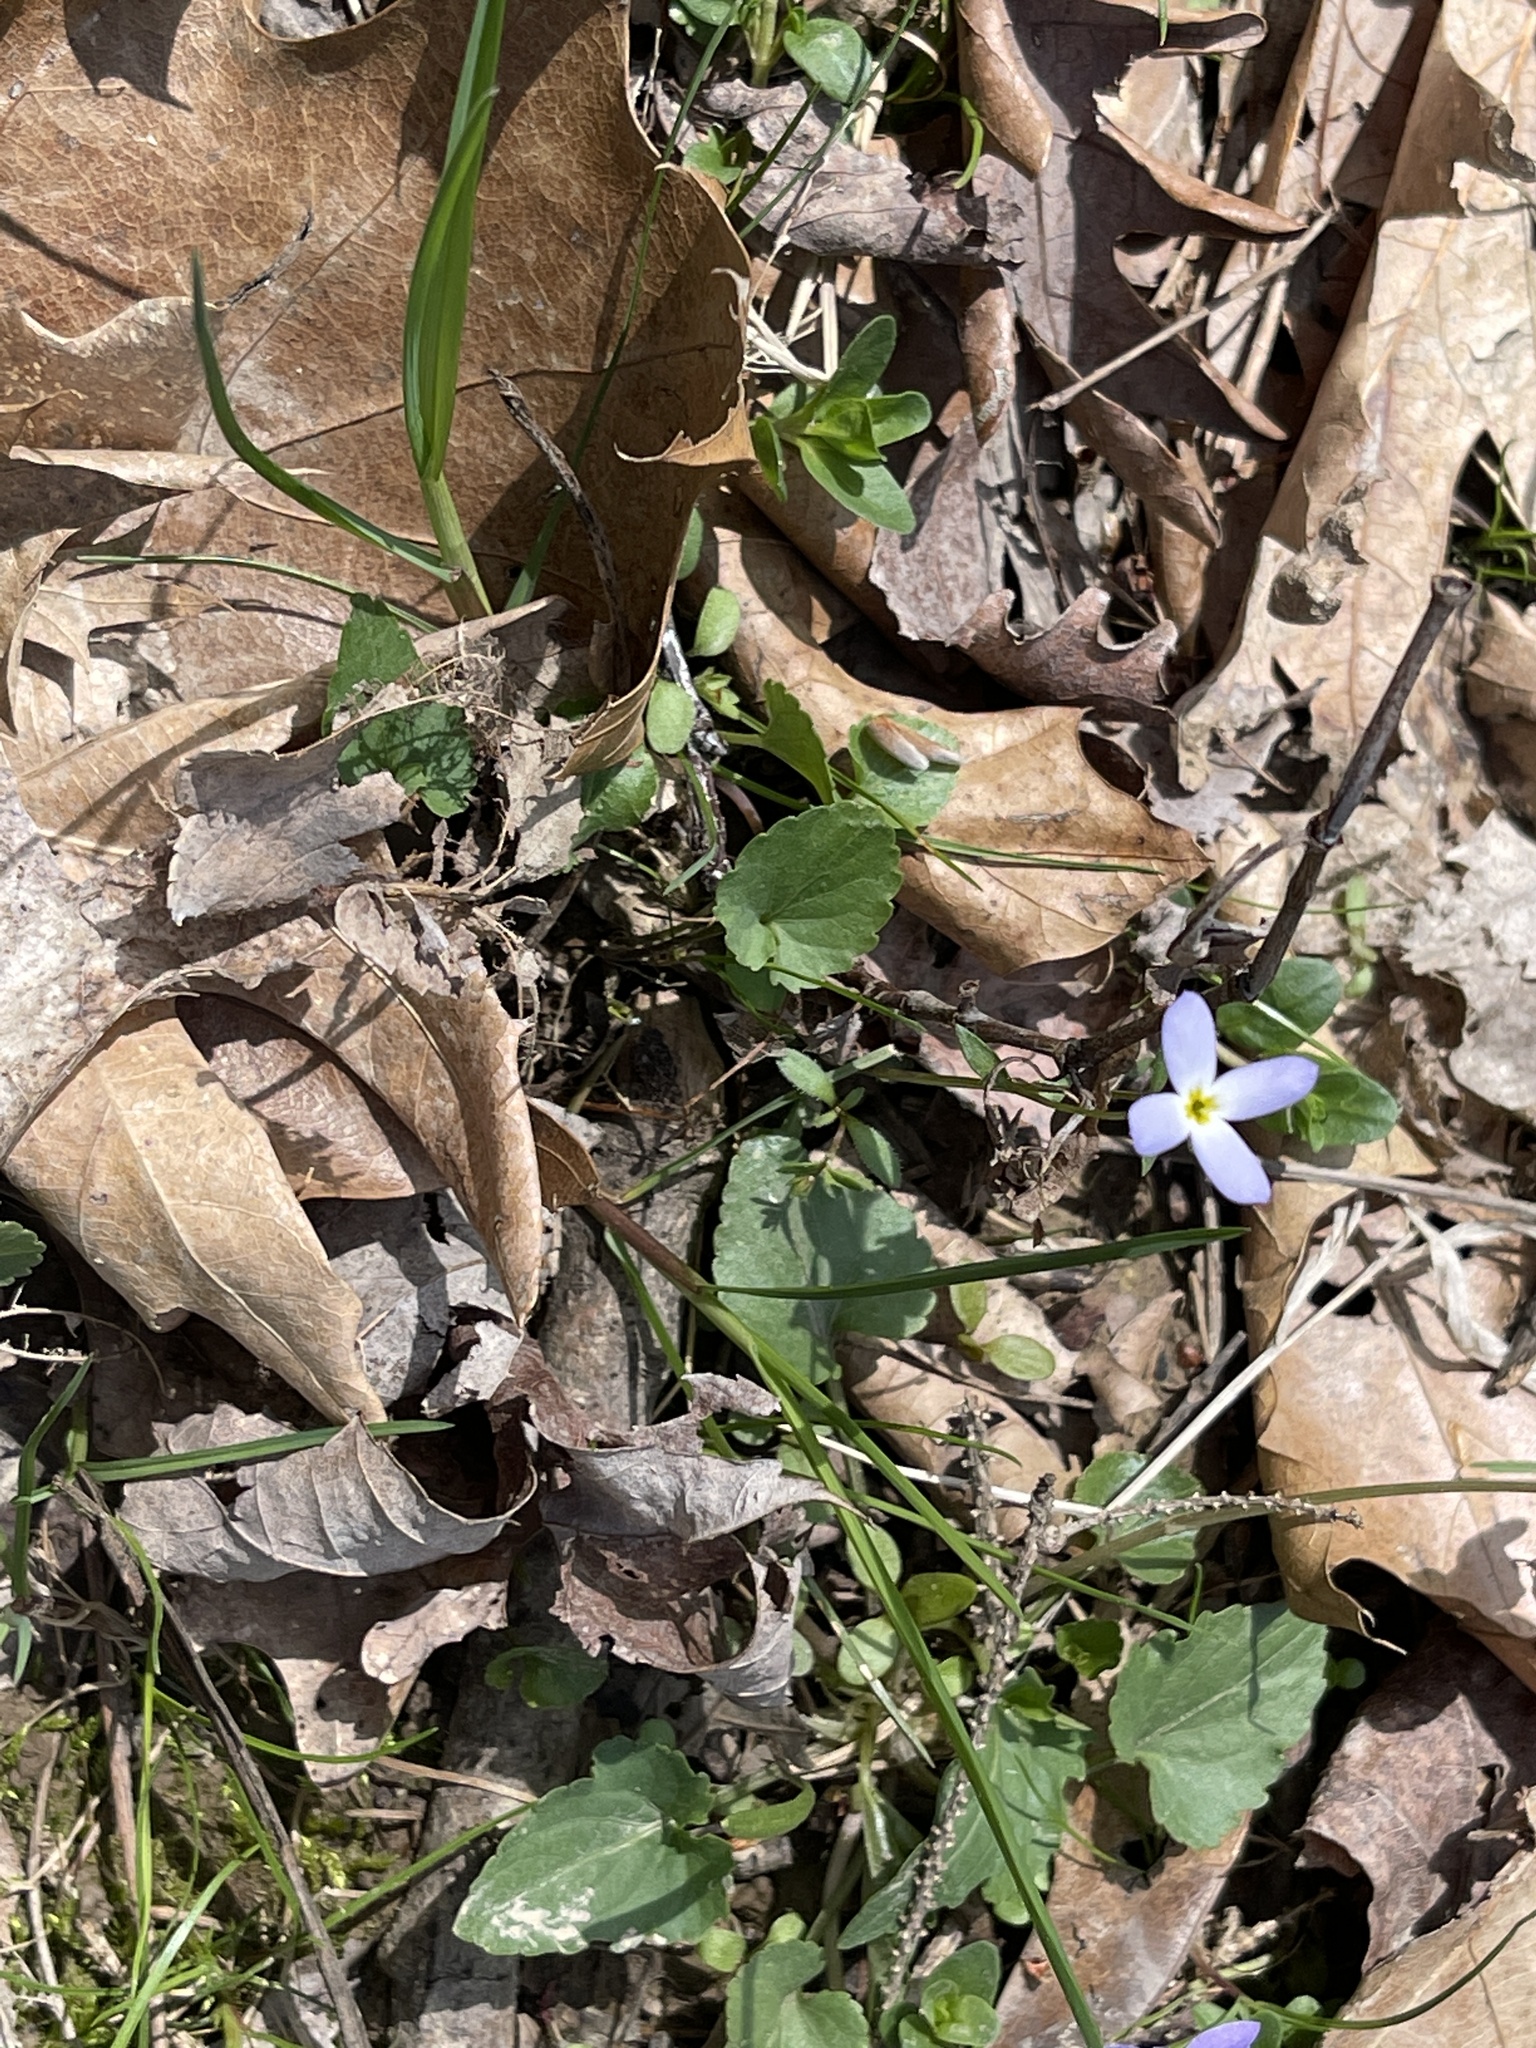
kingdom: Plantae
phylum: Tracheophyta
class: Magnoliopsida
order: Gentianales
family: Rubiaceae
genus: Houstonia
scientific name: Houstonia caerulea
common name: Bluets
